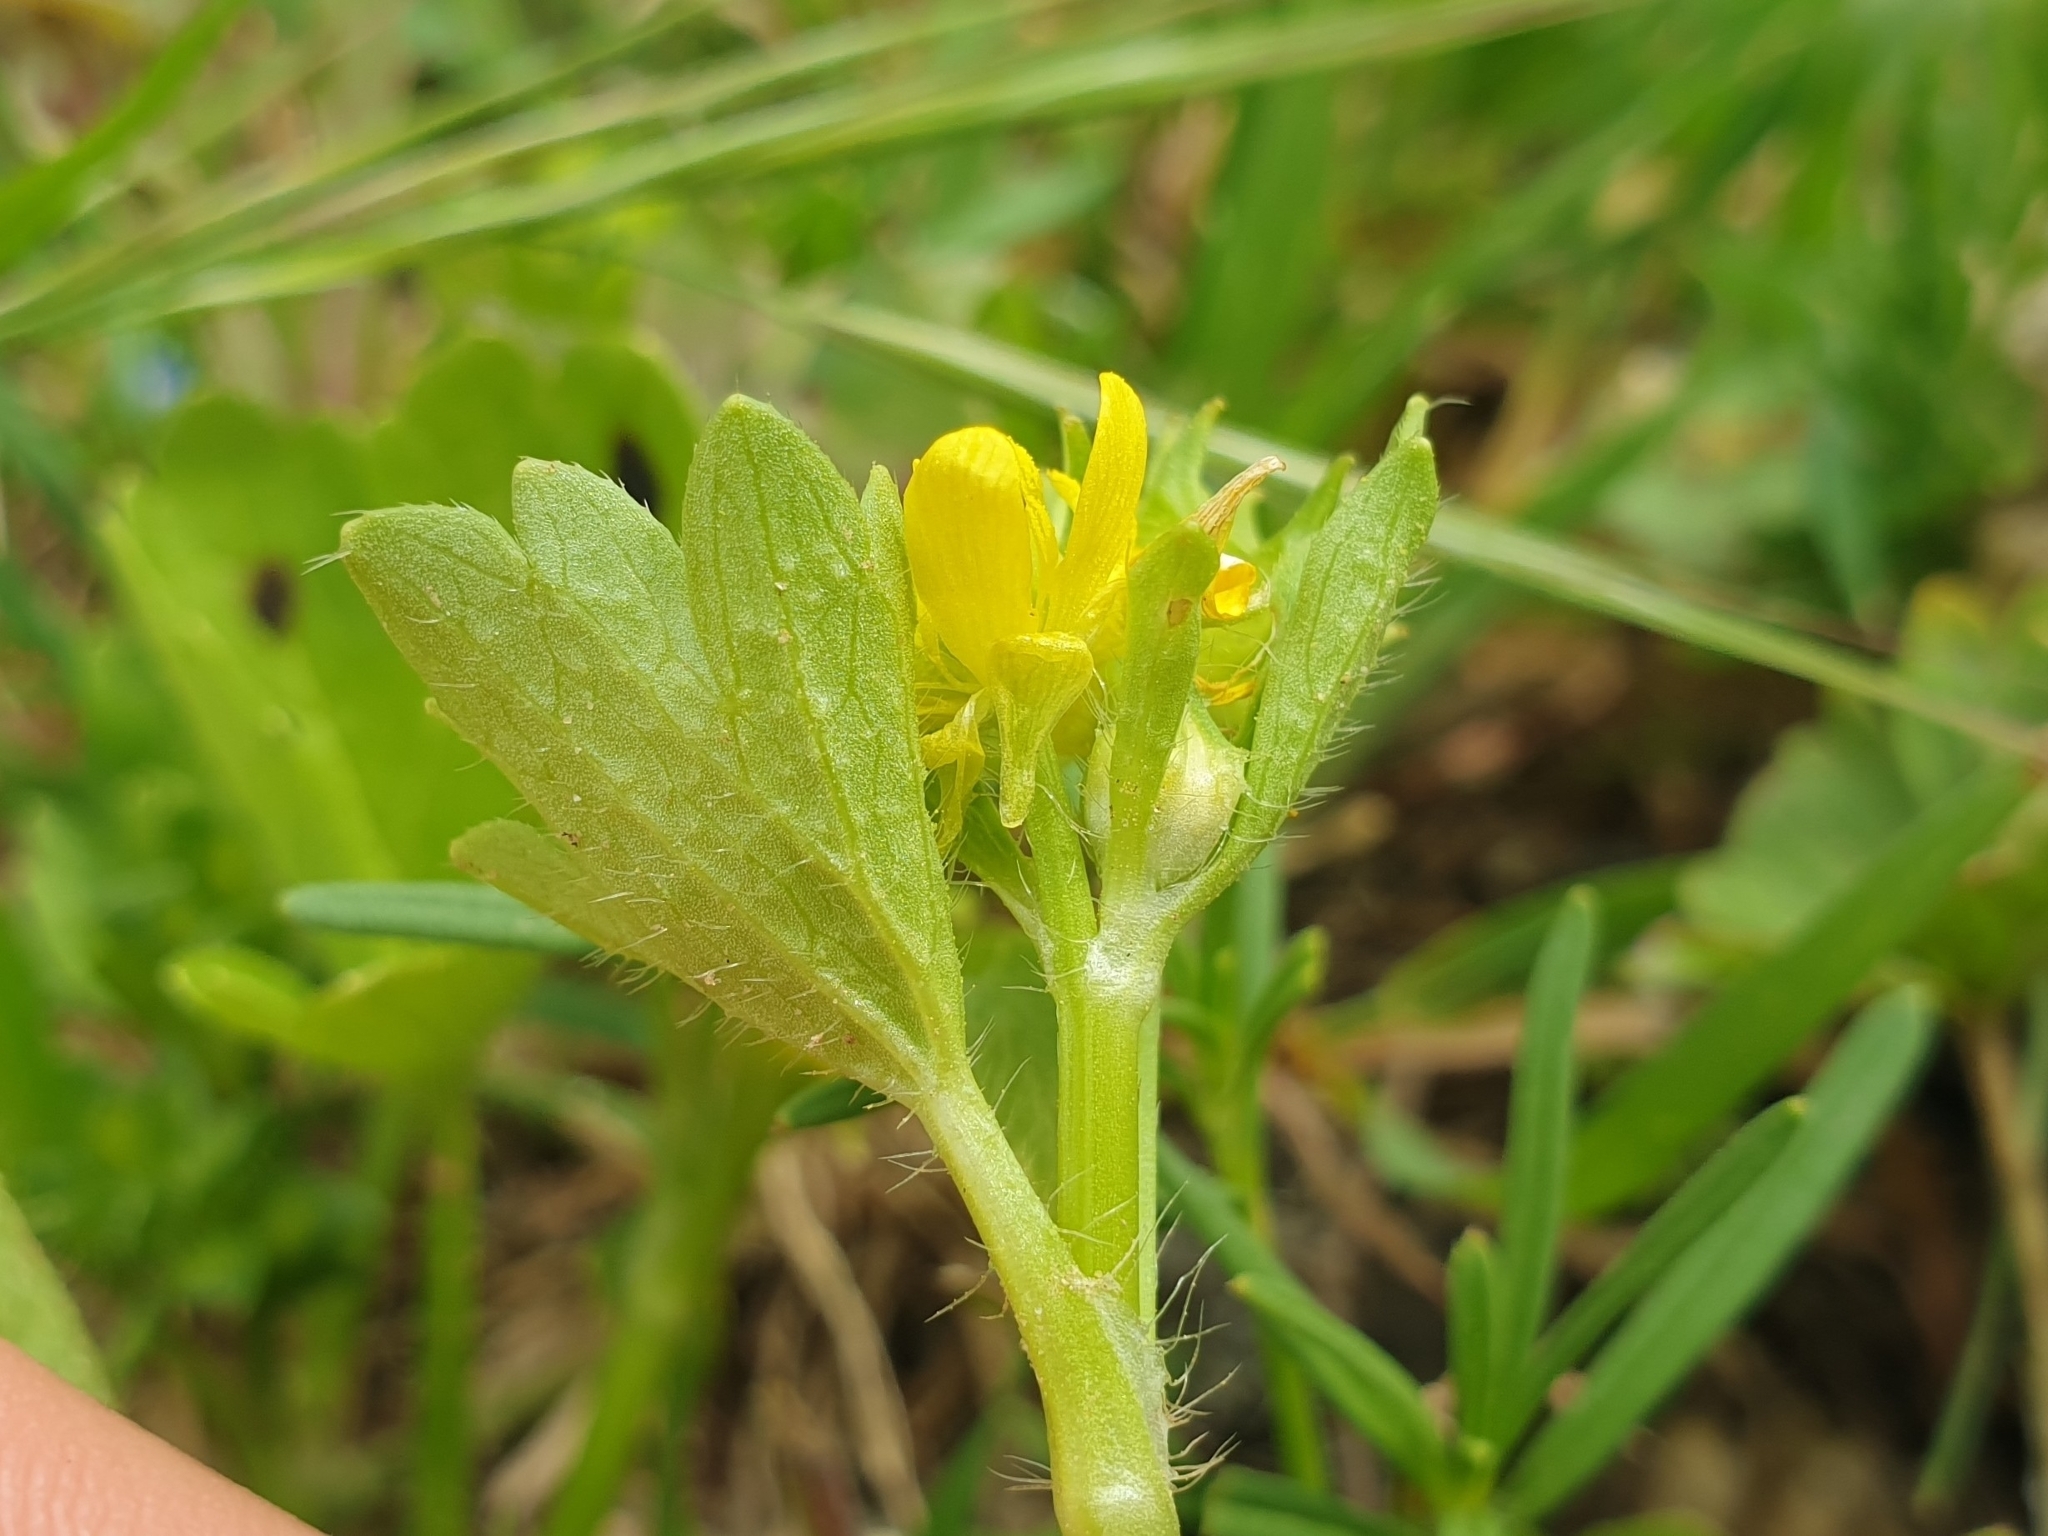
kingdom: Plantae
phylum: Tracheophyta
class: Magnoliopsida
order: Ranunculales
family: Ranunculaceae
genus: Ranunculus
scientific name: Ranunculus muricatus
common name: Rough-fruited buttercup
